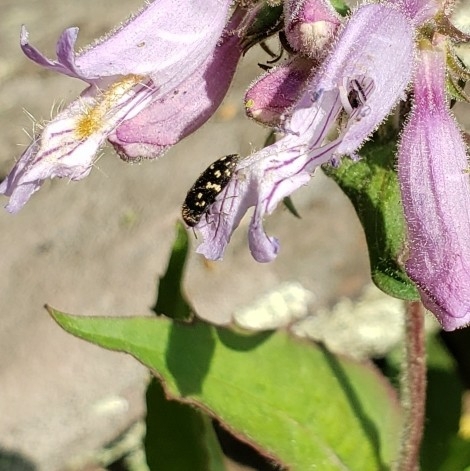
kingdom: Animalia
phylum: Arthropoda
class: Insecta
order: Coleoptera
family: Buprestidae
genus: Acmaeodera
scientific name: Acmaeodera tubulus
